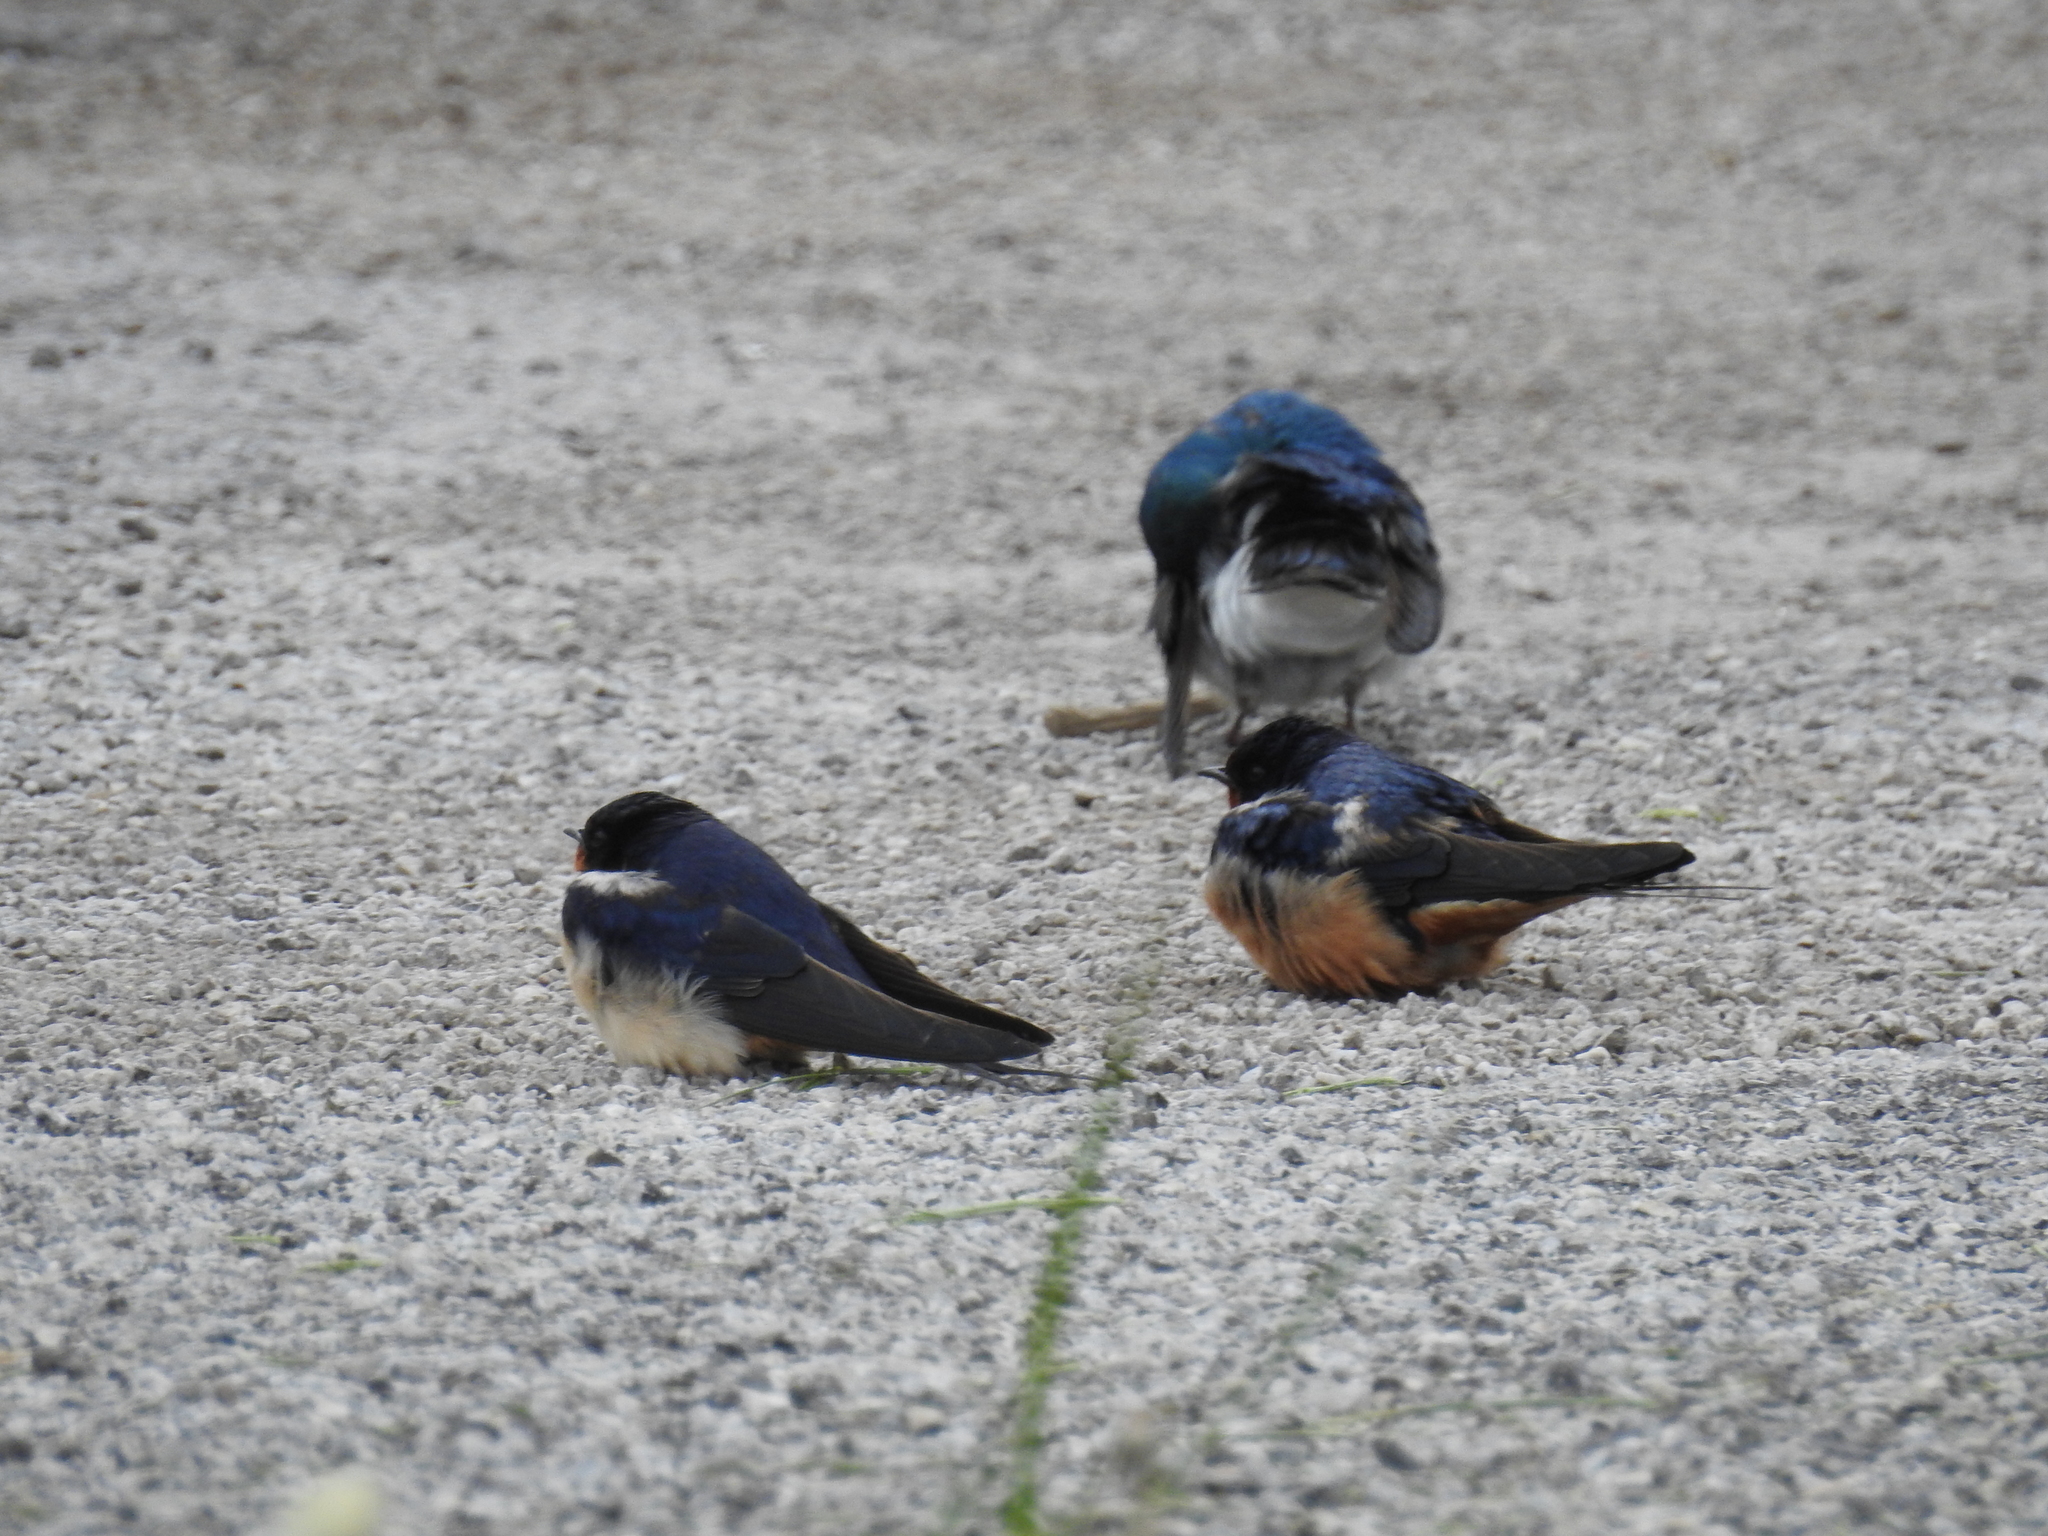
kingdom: Animalia
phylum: Chordata
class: Aves
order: Passeriformes
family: Hirundinidae
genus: Hirundo
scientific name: Hirundo rustica
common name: Barn swallow
